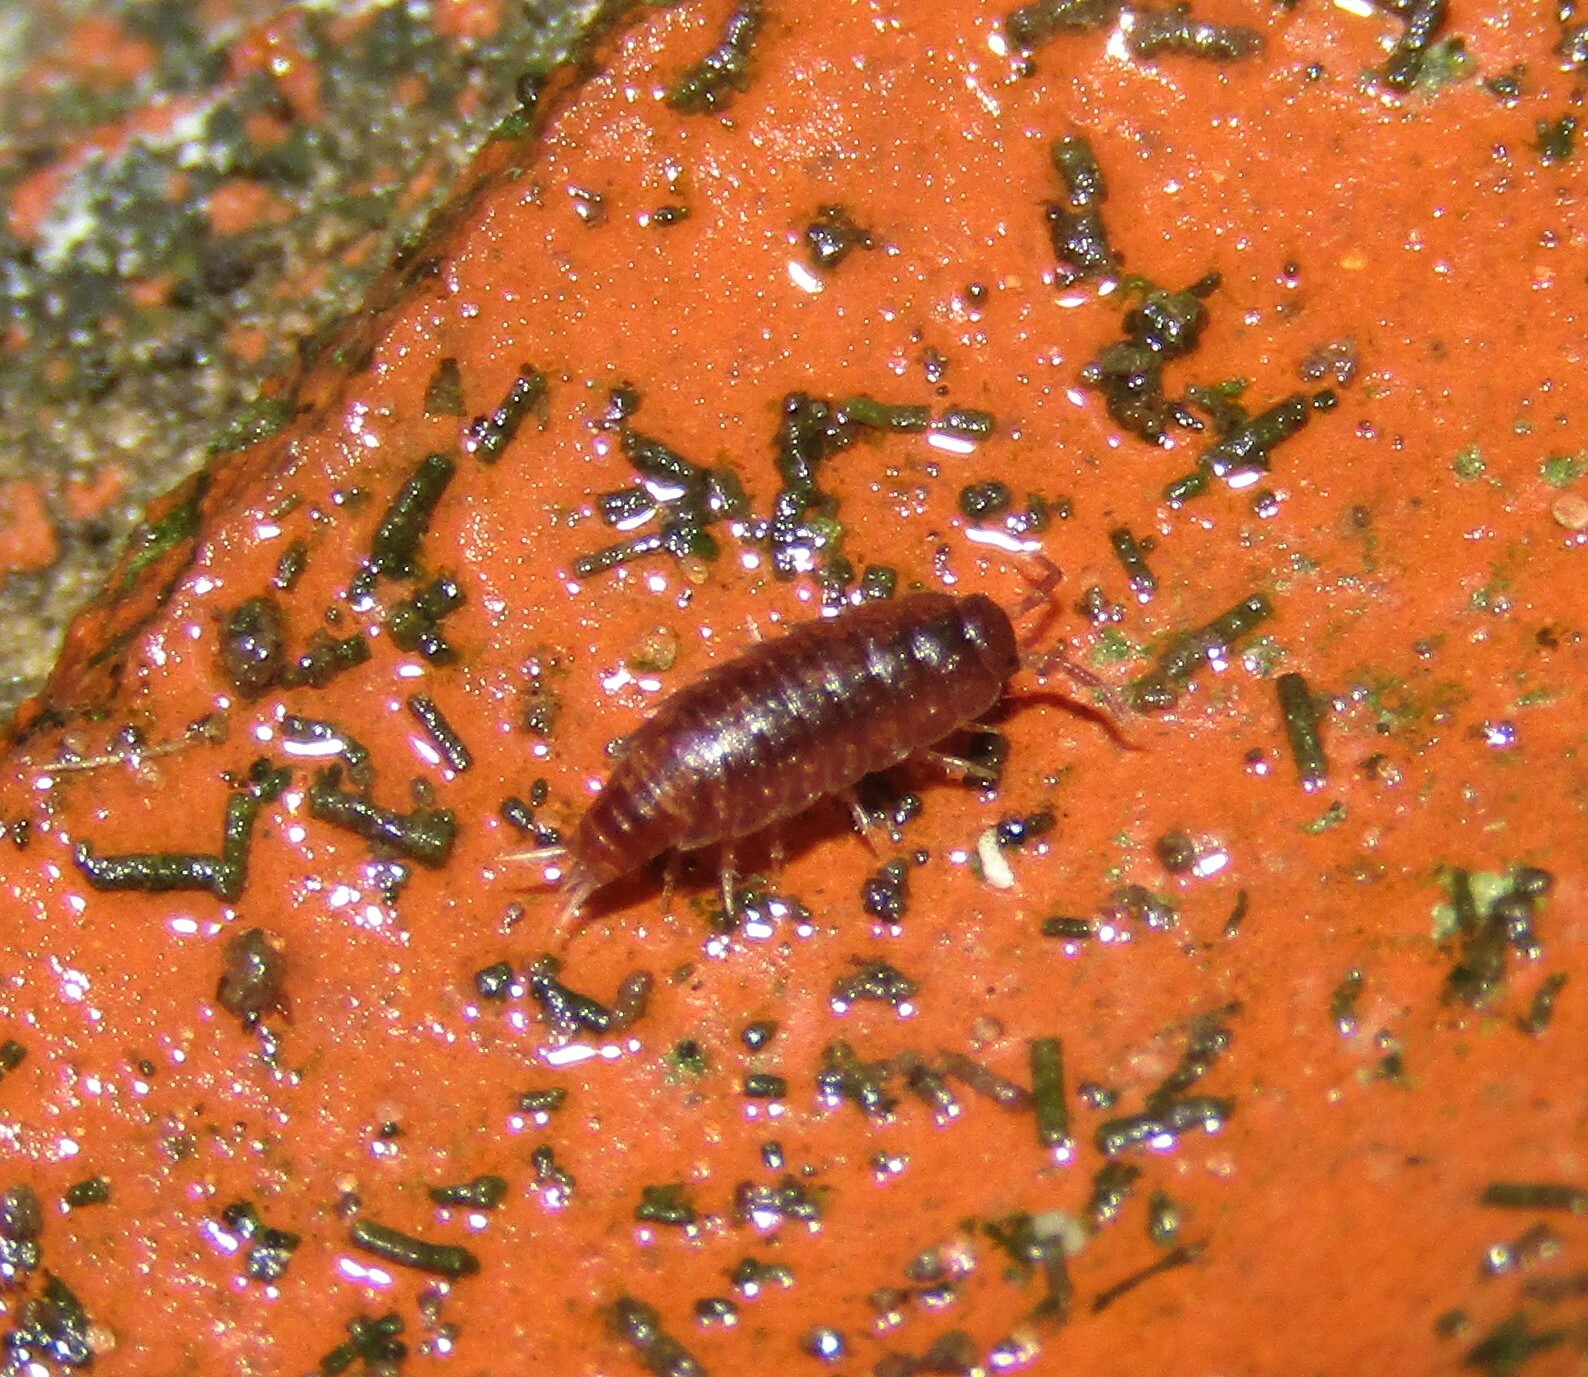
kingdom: Animalia
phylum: Arthropoda
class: Malacostraca
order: Isopoda
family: Trichoniscidae
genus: Hyloniscus
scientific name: Hyloniscus riparius
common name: Isopod
